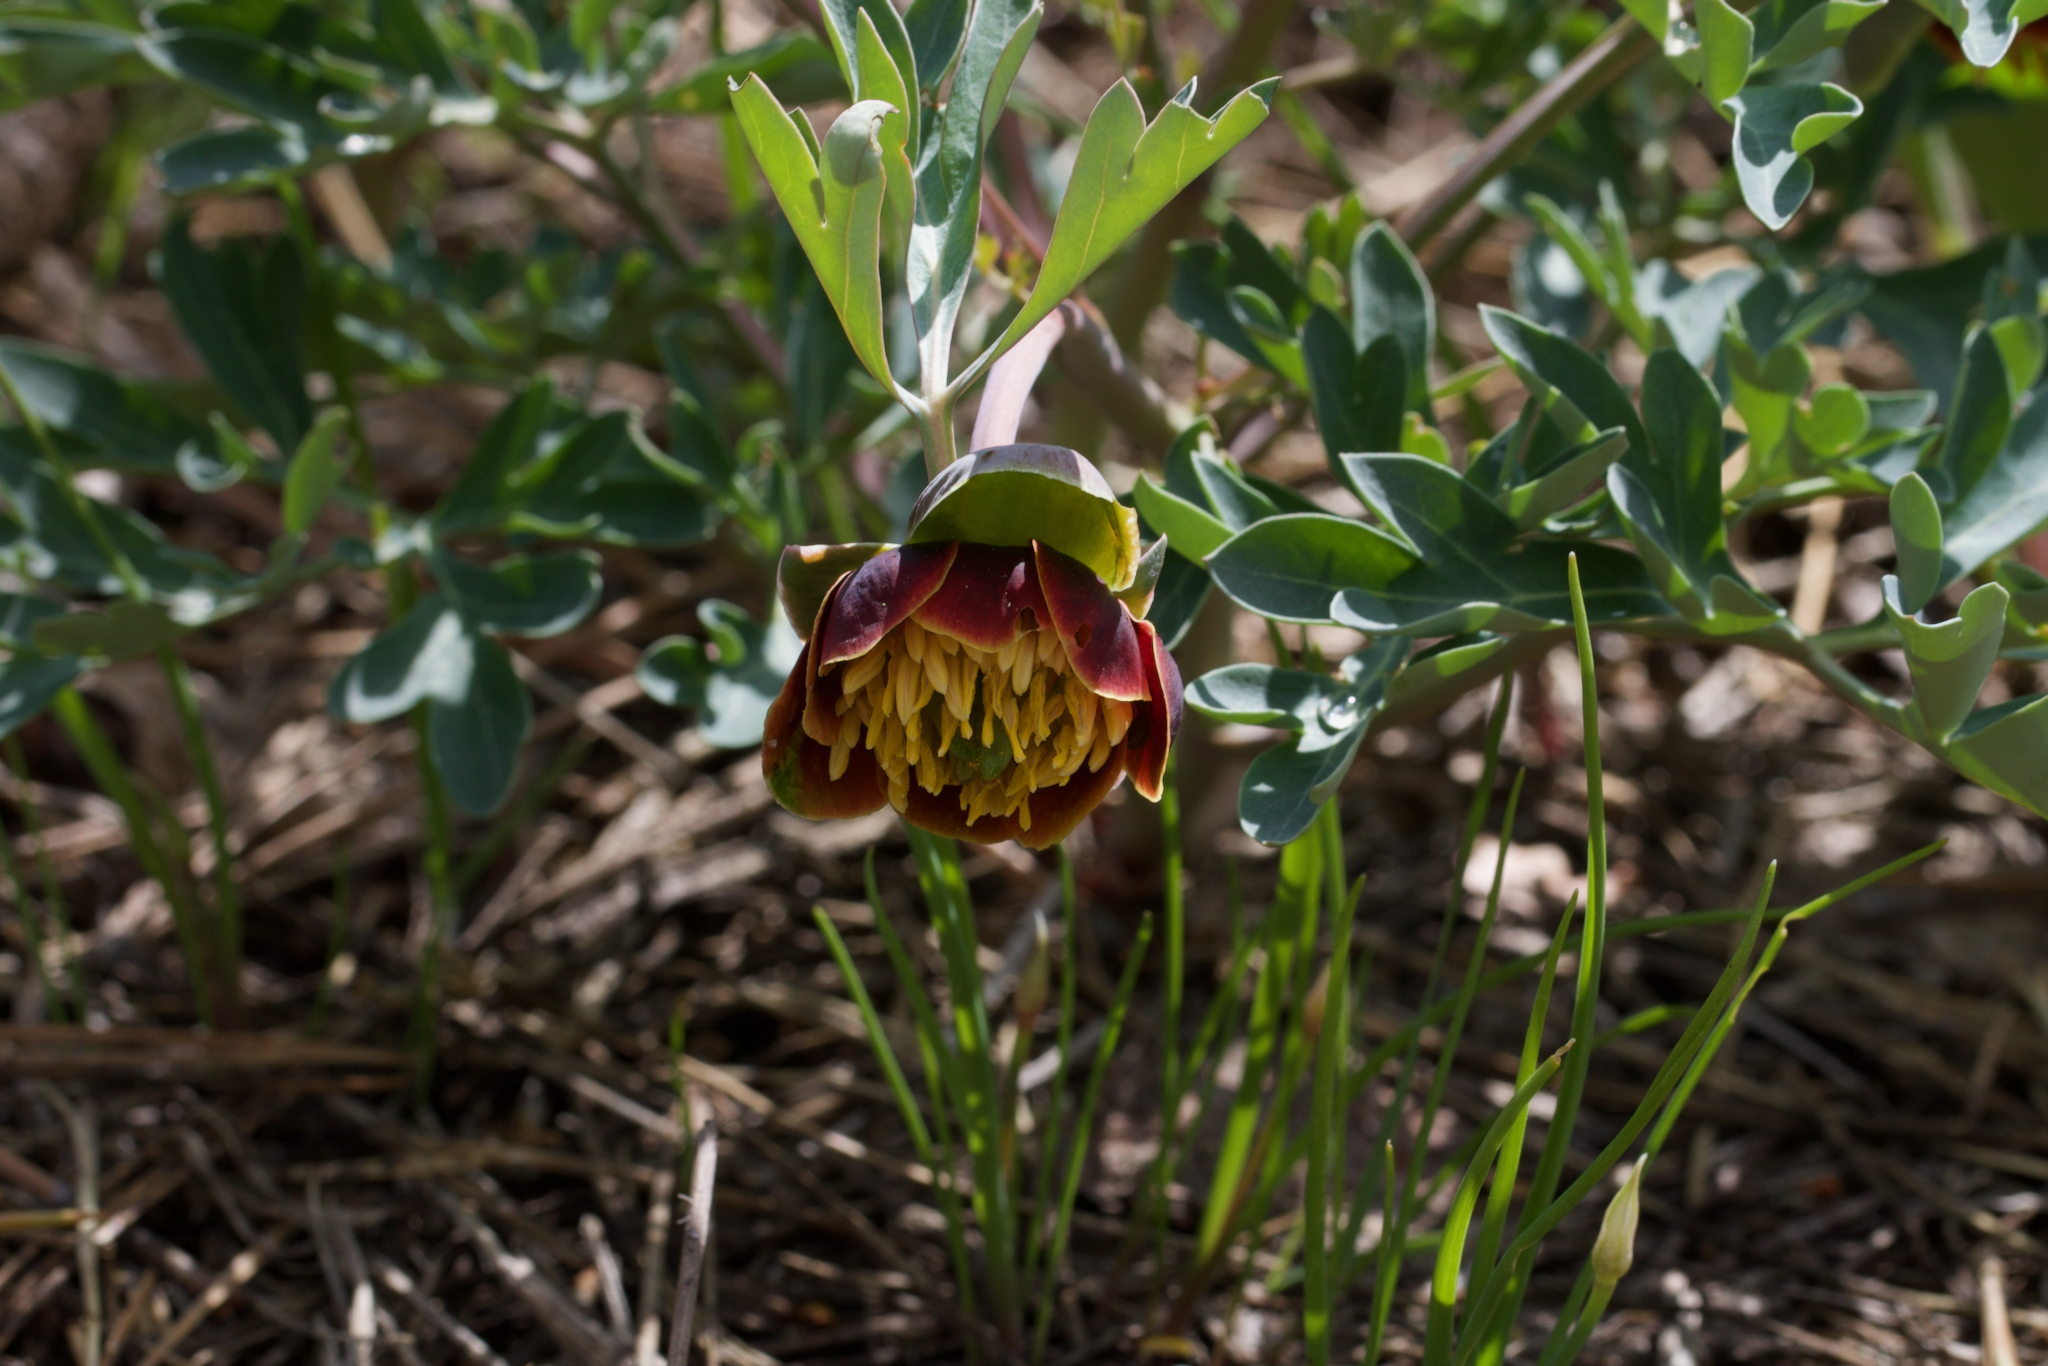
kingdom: Plantae
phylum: Tracheophyta
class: Magnoliopsida
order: Saxifragales
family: Paeoniaceae
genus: Paeonia
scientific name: Paeonia brownii
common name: Brown's peony
